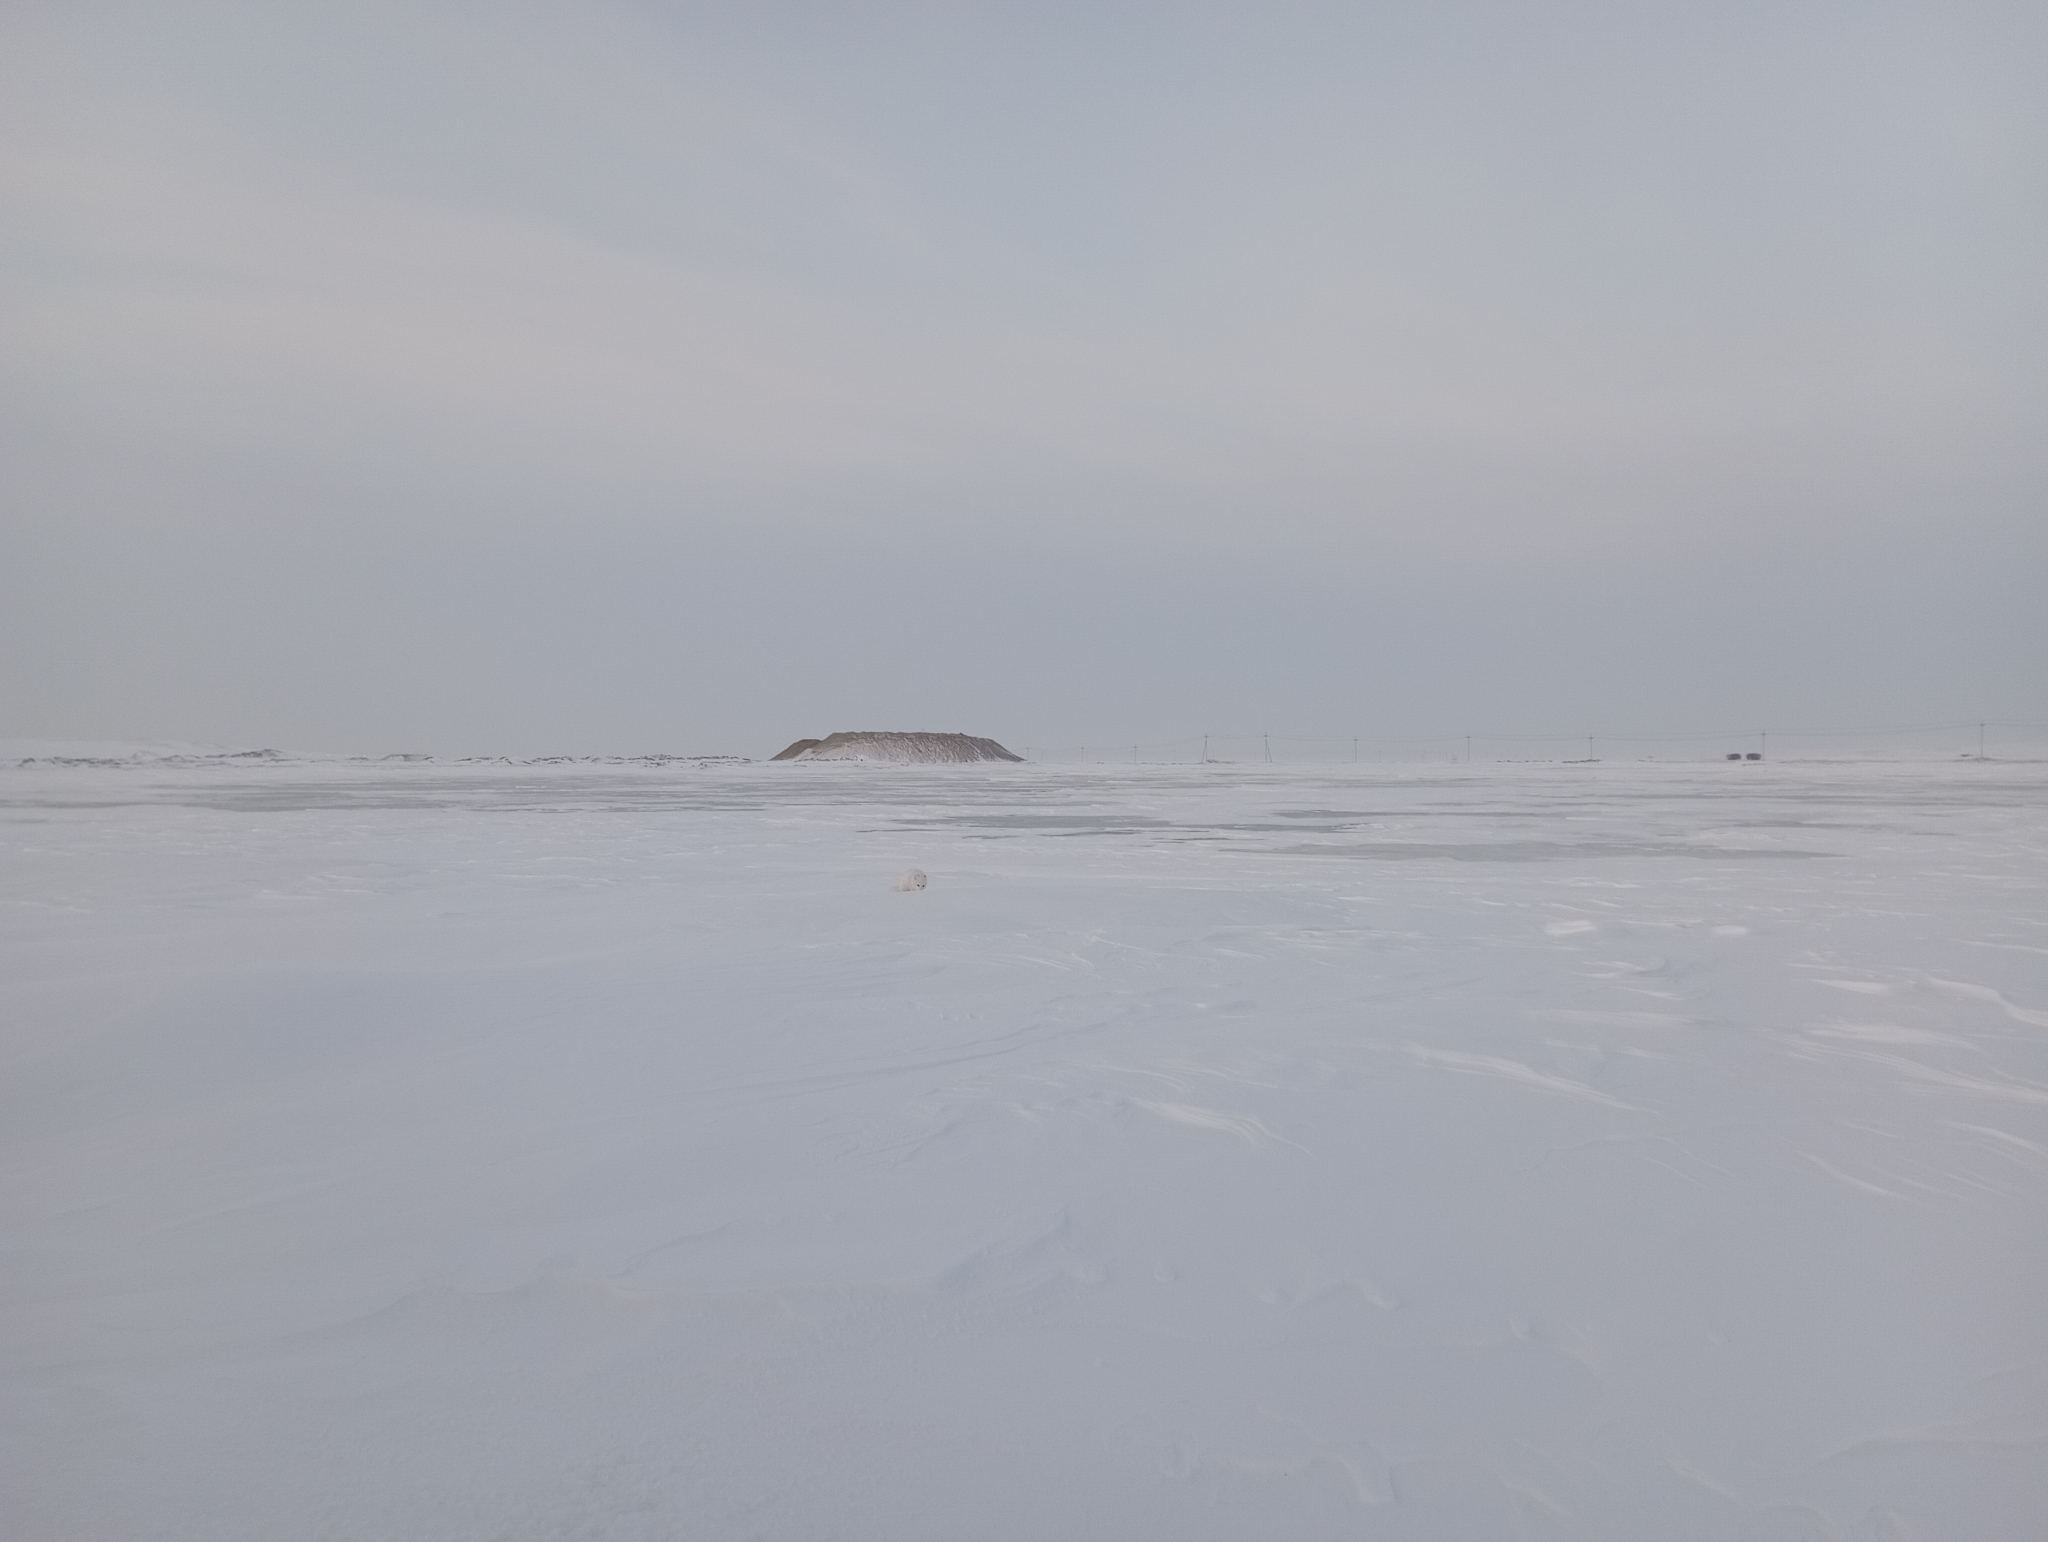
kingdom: Animalia
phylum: Chordata
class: Mammalia
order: Carnivora
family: Canidae
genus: Vulpes
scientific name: Vulpes lagopus
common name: Arctic fox
